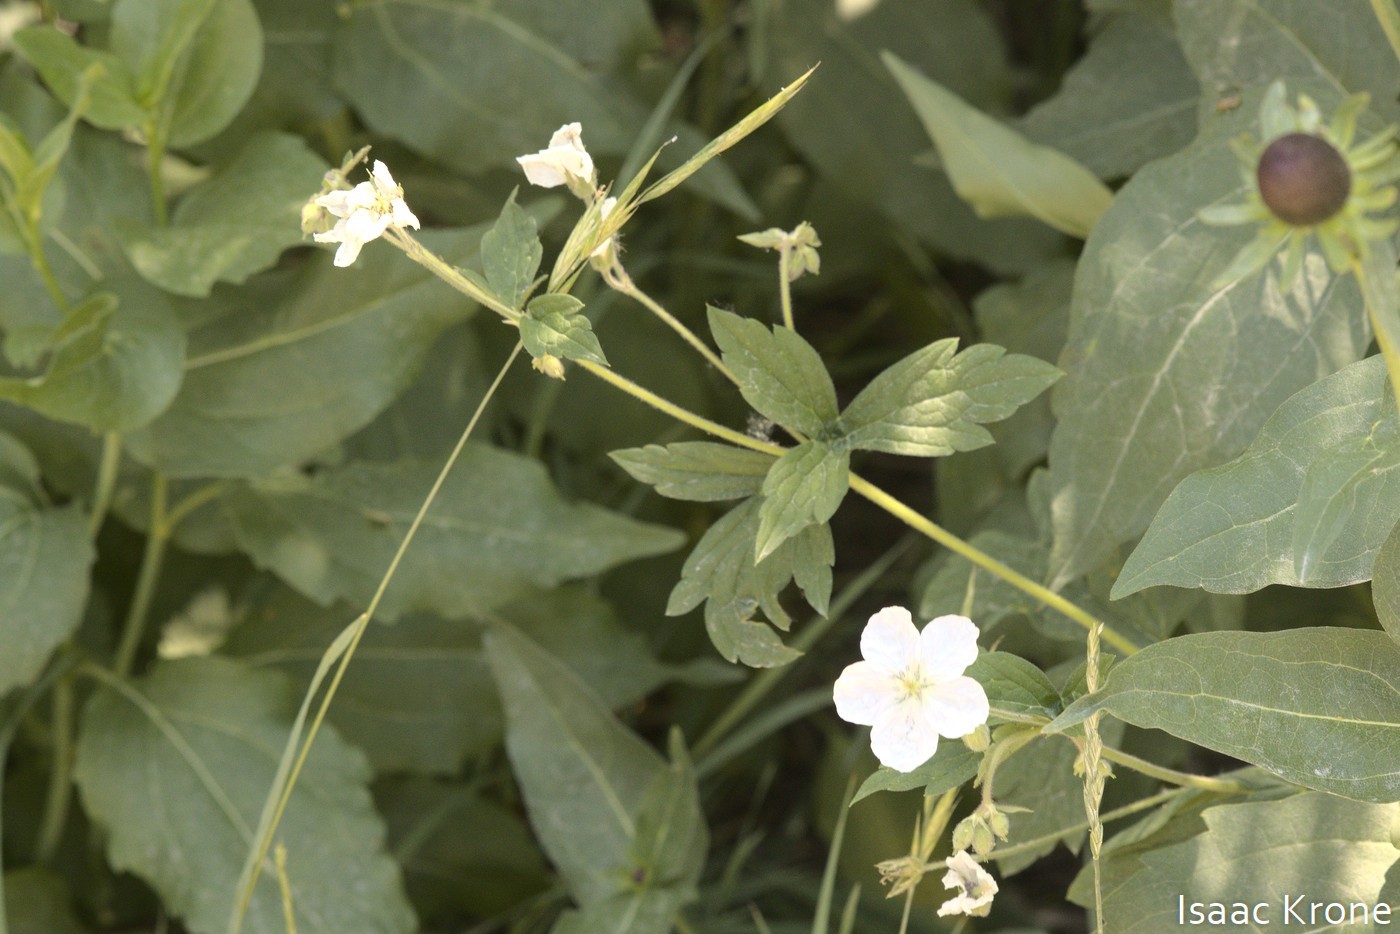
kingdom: Plantae
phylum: Tracheophyta
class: Magnoliopsida
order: Geraniales
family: Geraniaceae
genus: Geranium
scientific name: Geranium richardsonii
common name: Richardson's crane's-bill
